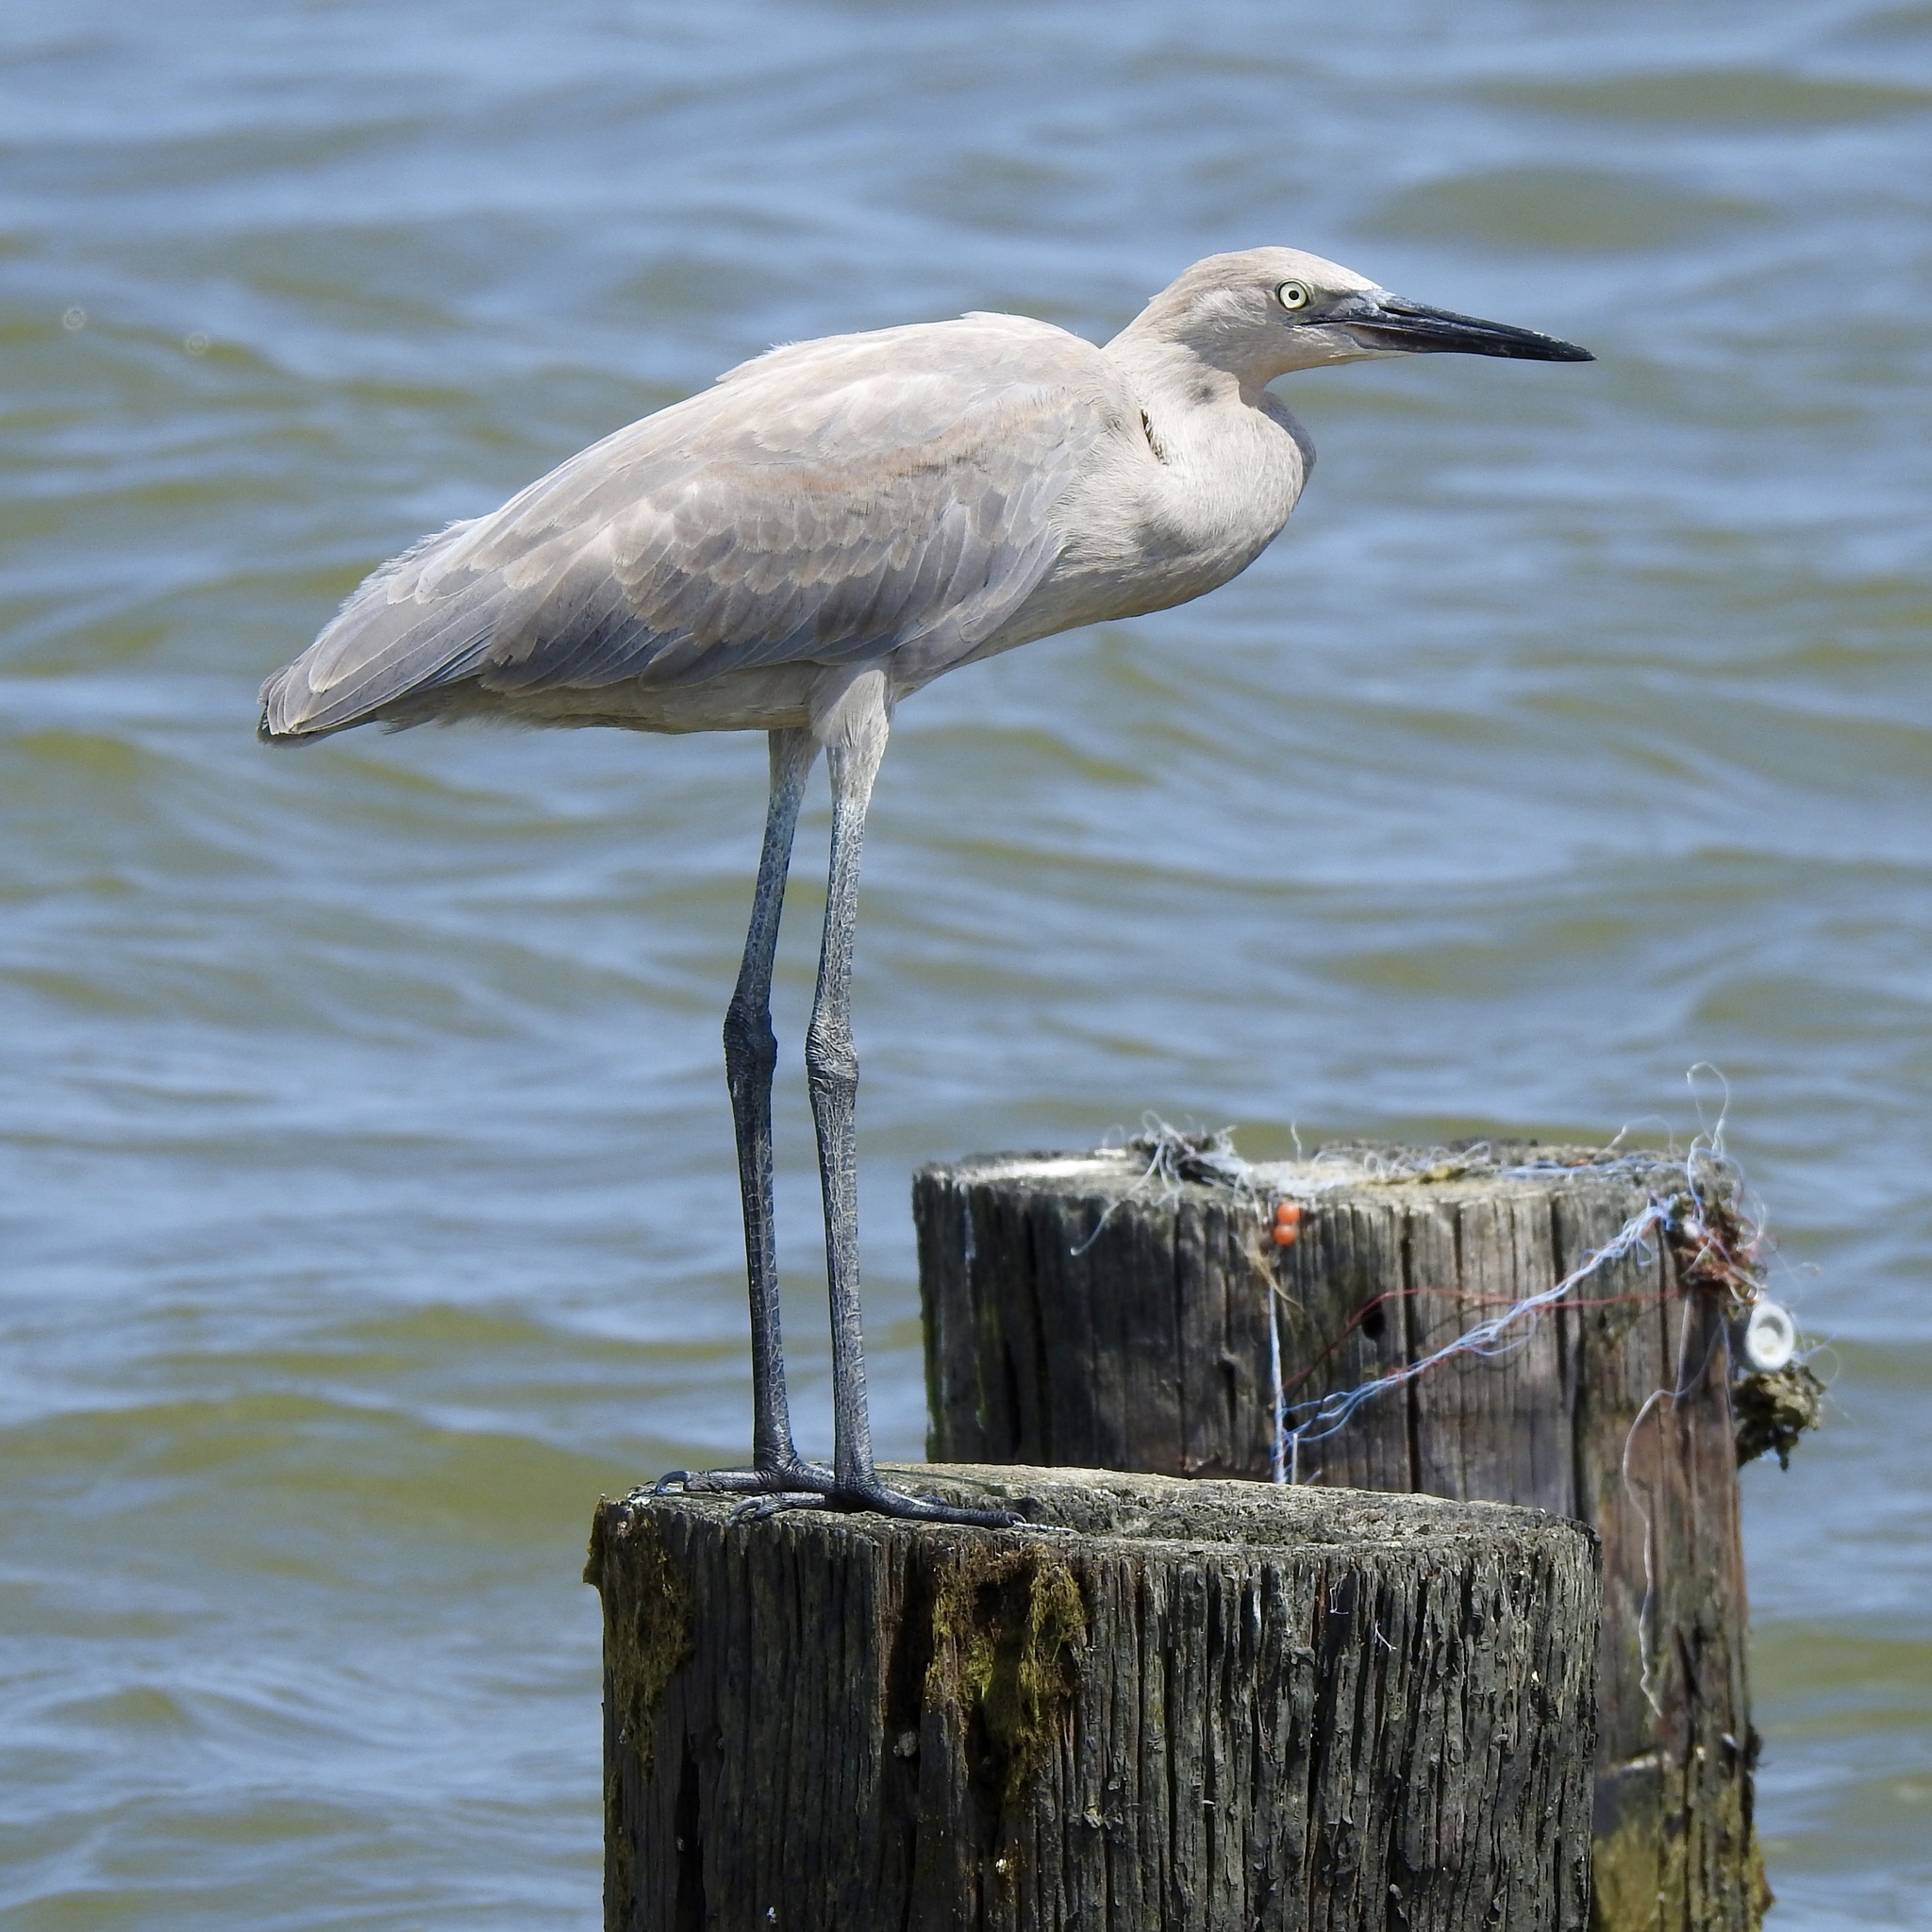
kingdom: Animalia
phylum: Chordata
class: Aves
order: Pelecaniformes
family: Ardeidae
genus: Egretta
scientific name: Egretta rufescens
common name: Reddish egret
